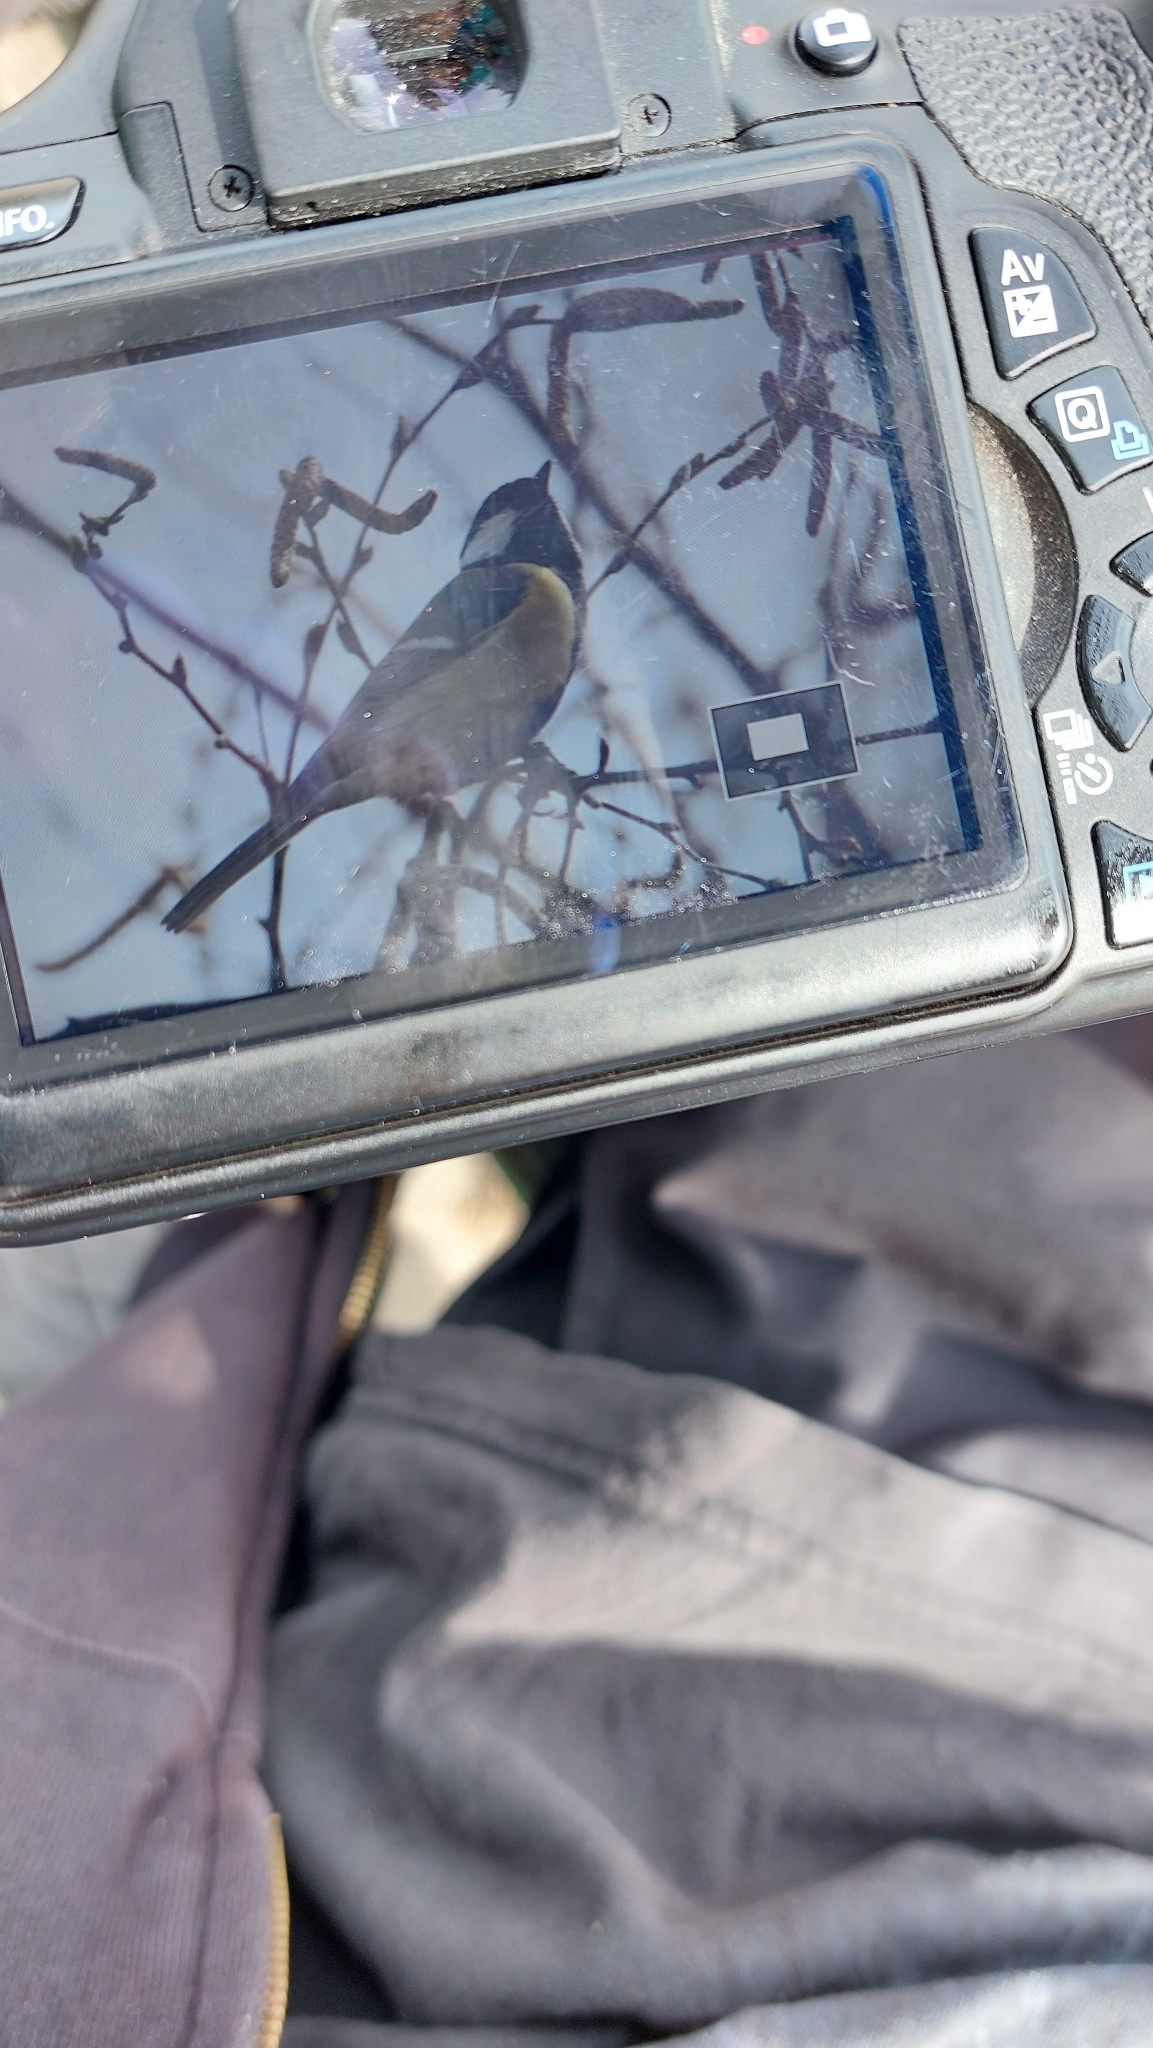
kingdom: Animalia
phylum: Chordata
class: Aves
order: Passeriformes
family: Paridae
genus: Parus
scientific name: Parus major
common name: Great tit
